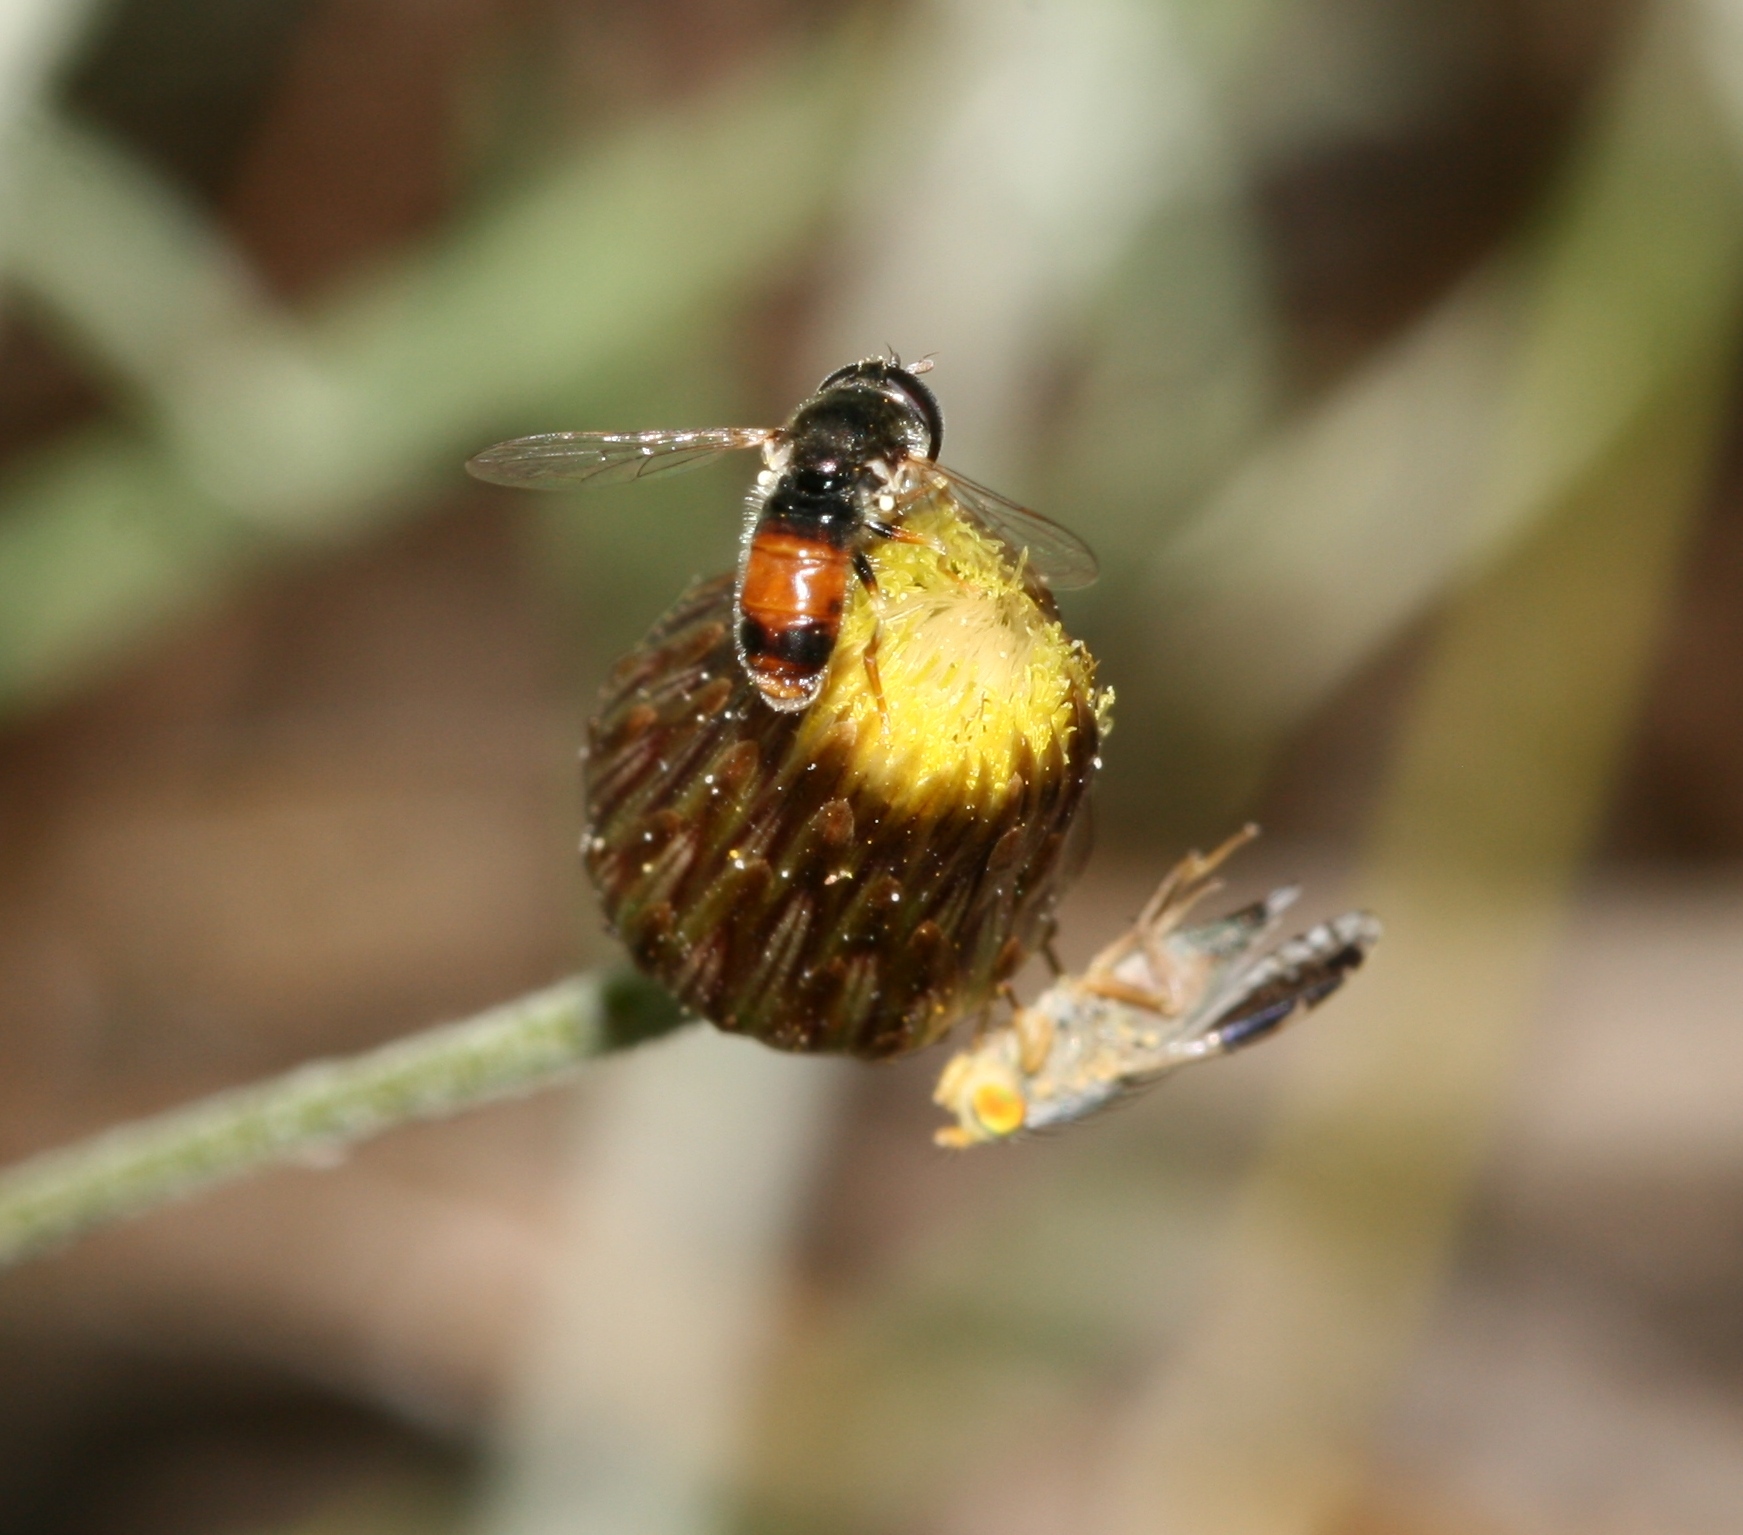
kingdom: Plantae
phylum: Tracheophyta
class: Magnoliopsida
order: Asterales
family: Asteraceae
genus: Phagnalon
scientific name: Phagnalon graecum
